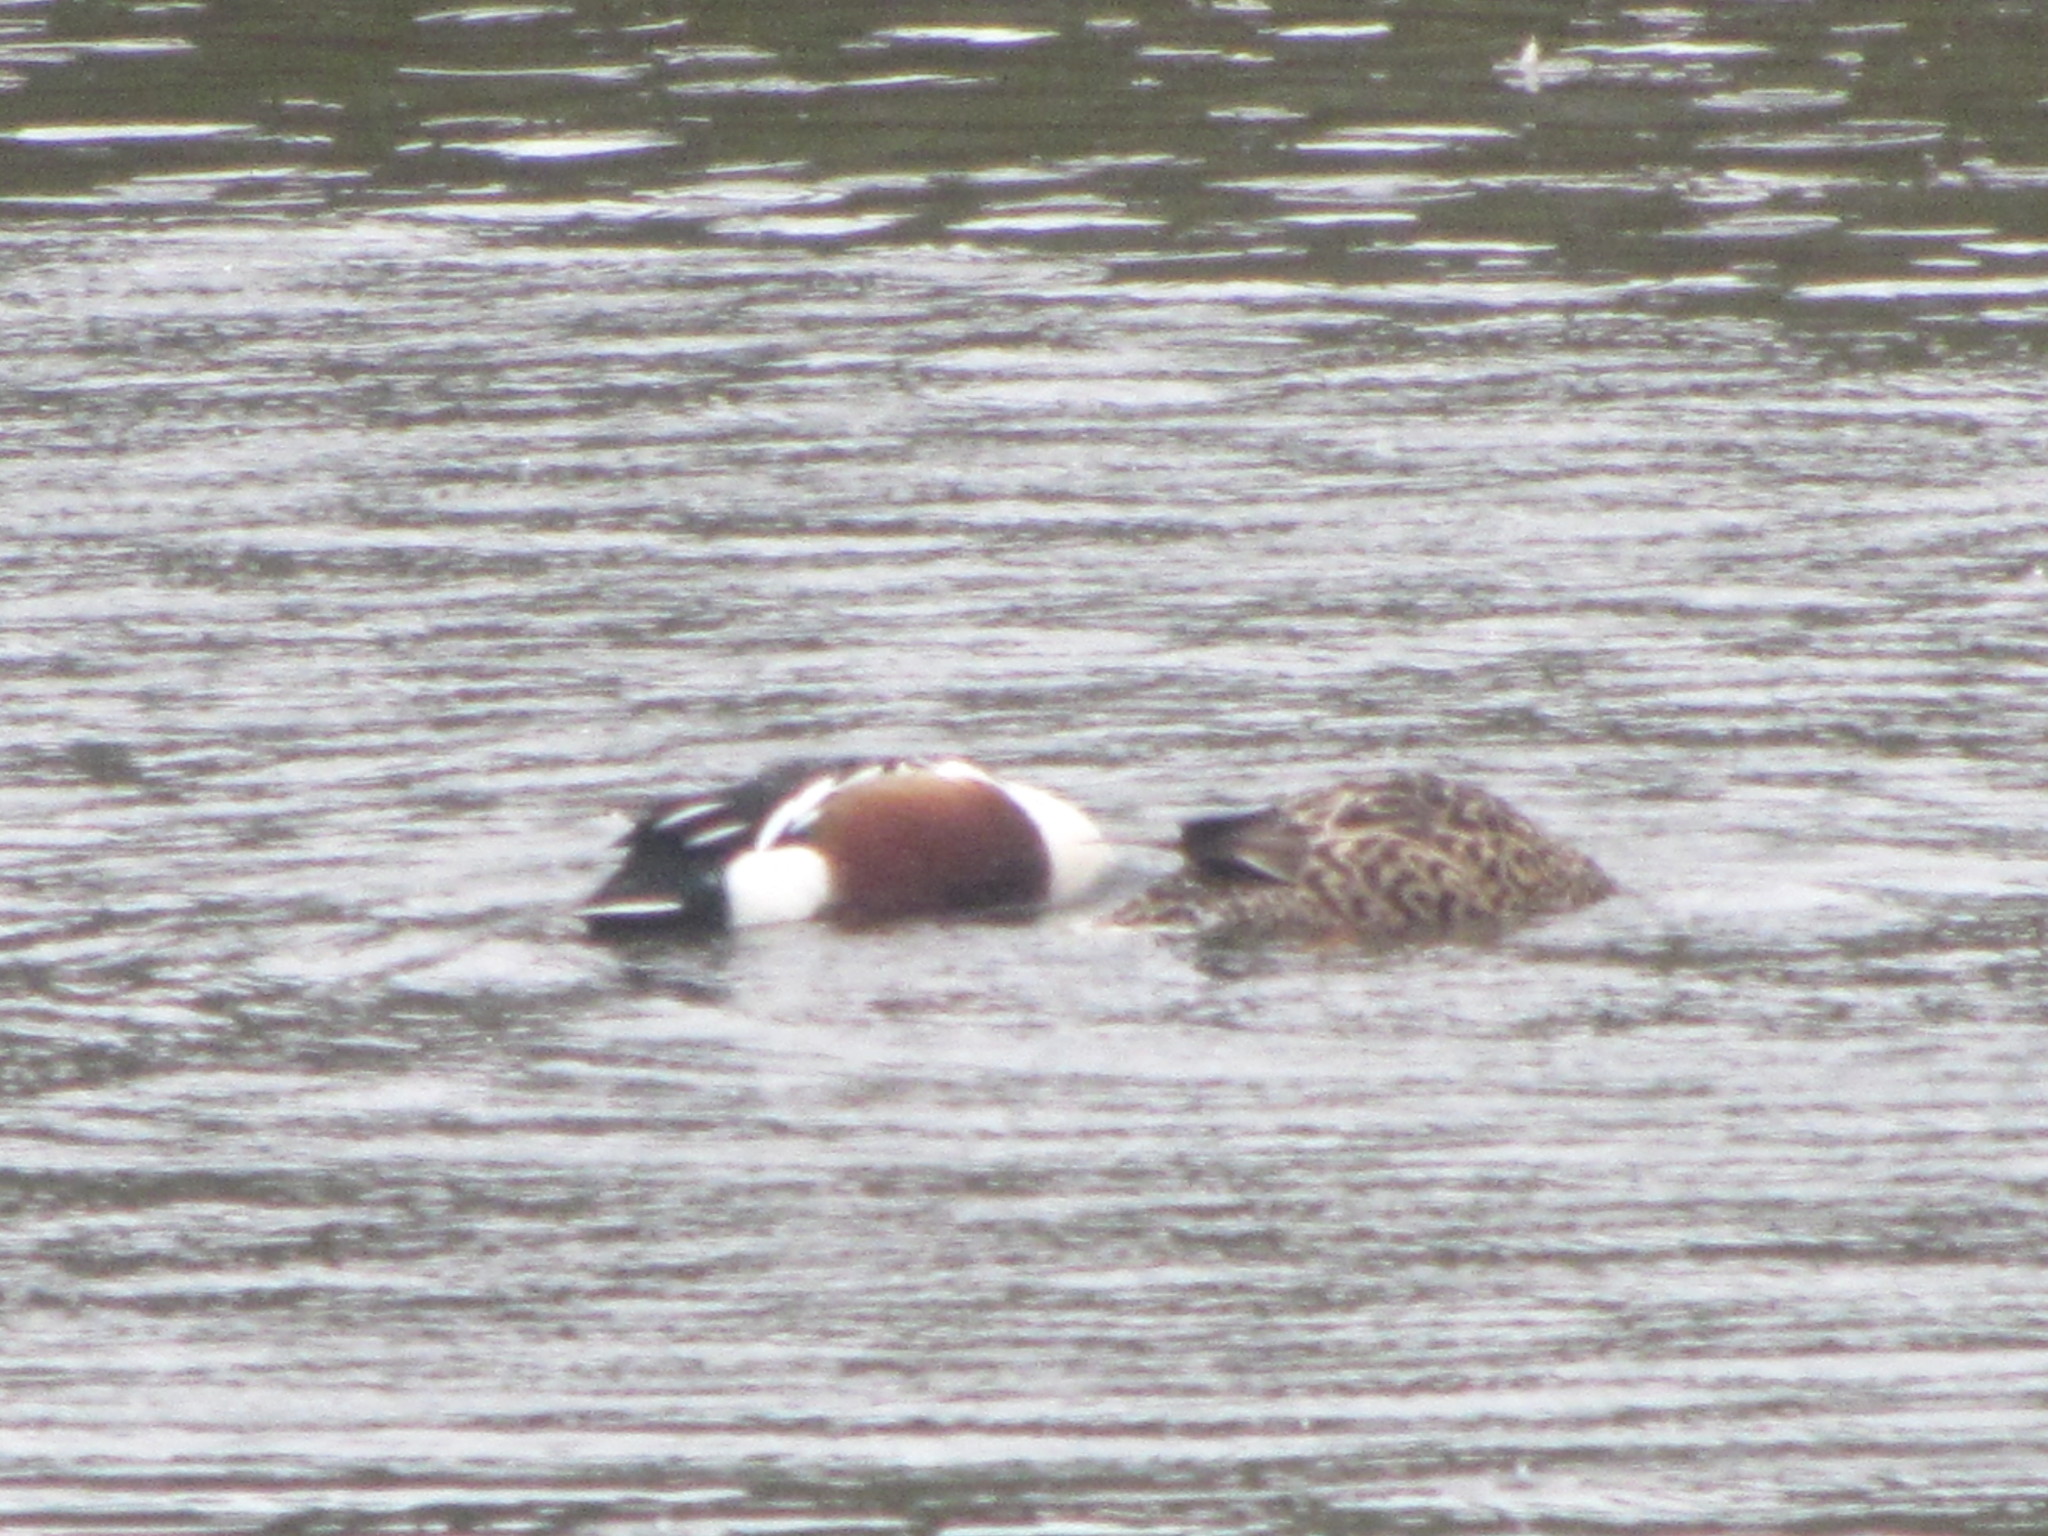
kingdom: Animalia
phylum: Chordata
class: Aves
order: Anseriformes
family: Anatidae
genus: Spatula
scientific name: Spatula clypeata
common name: Northern shoveler
